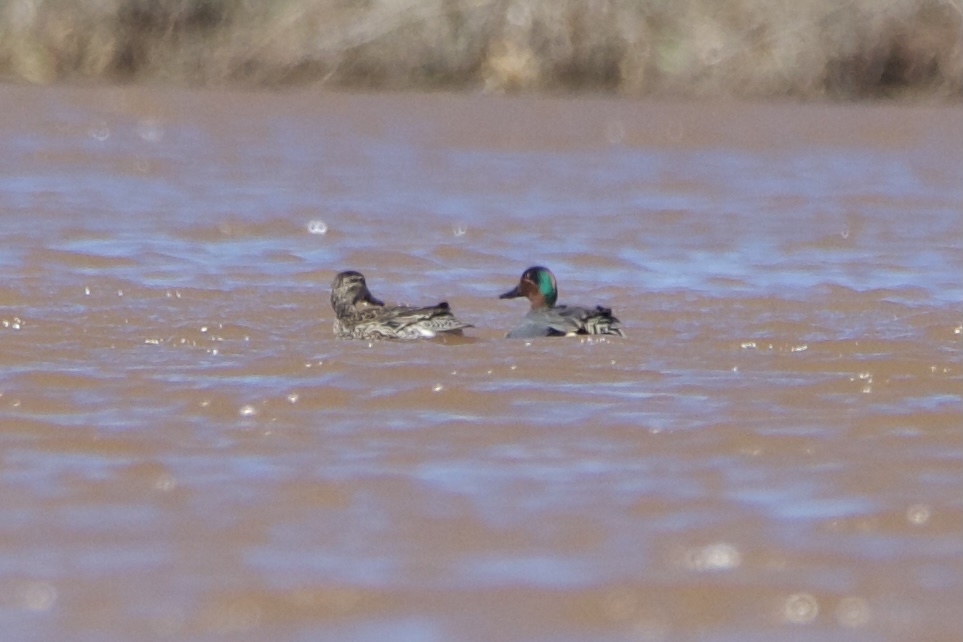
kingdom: Animalia
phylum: Chordata
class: Aves
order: Anseriformes
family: Anatidae
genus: Anas
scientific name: Anas crecca
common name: Eurasian teal
